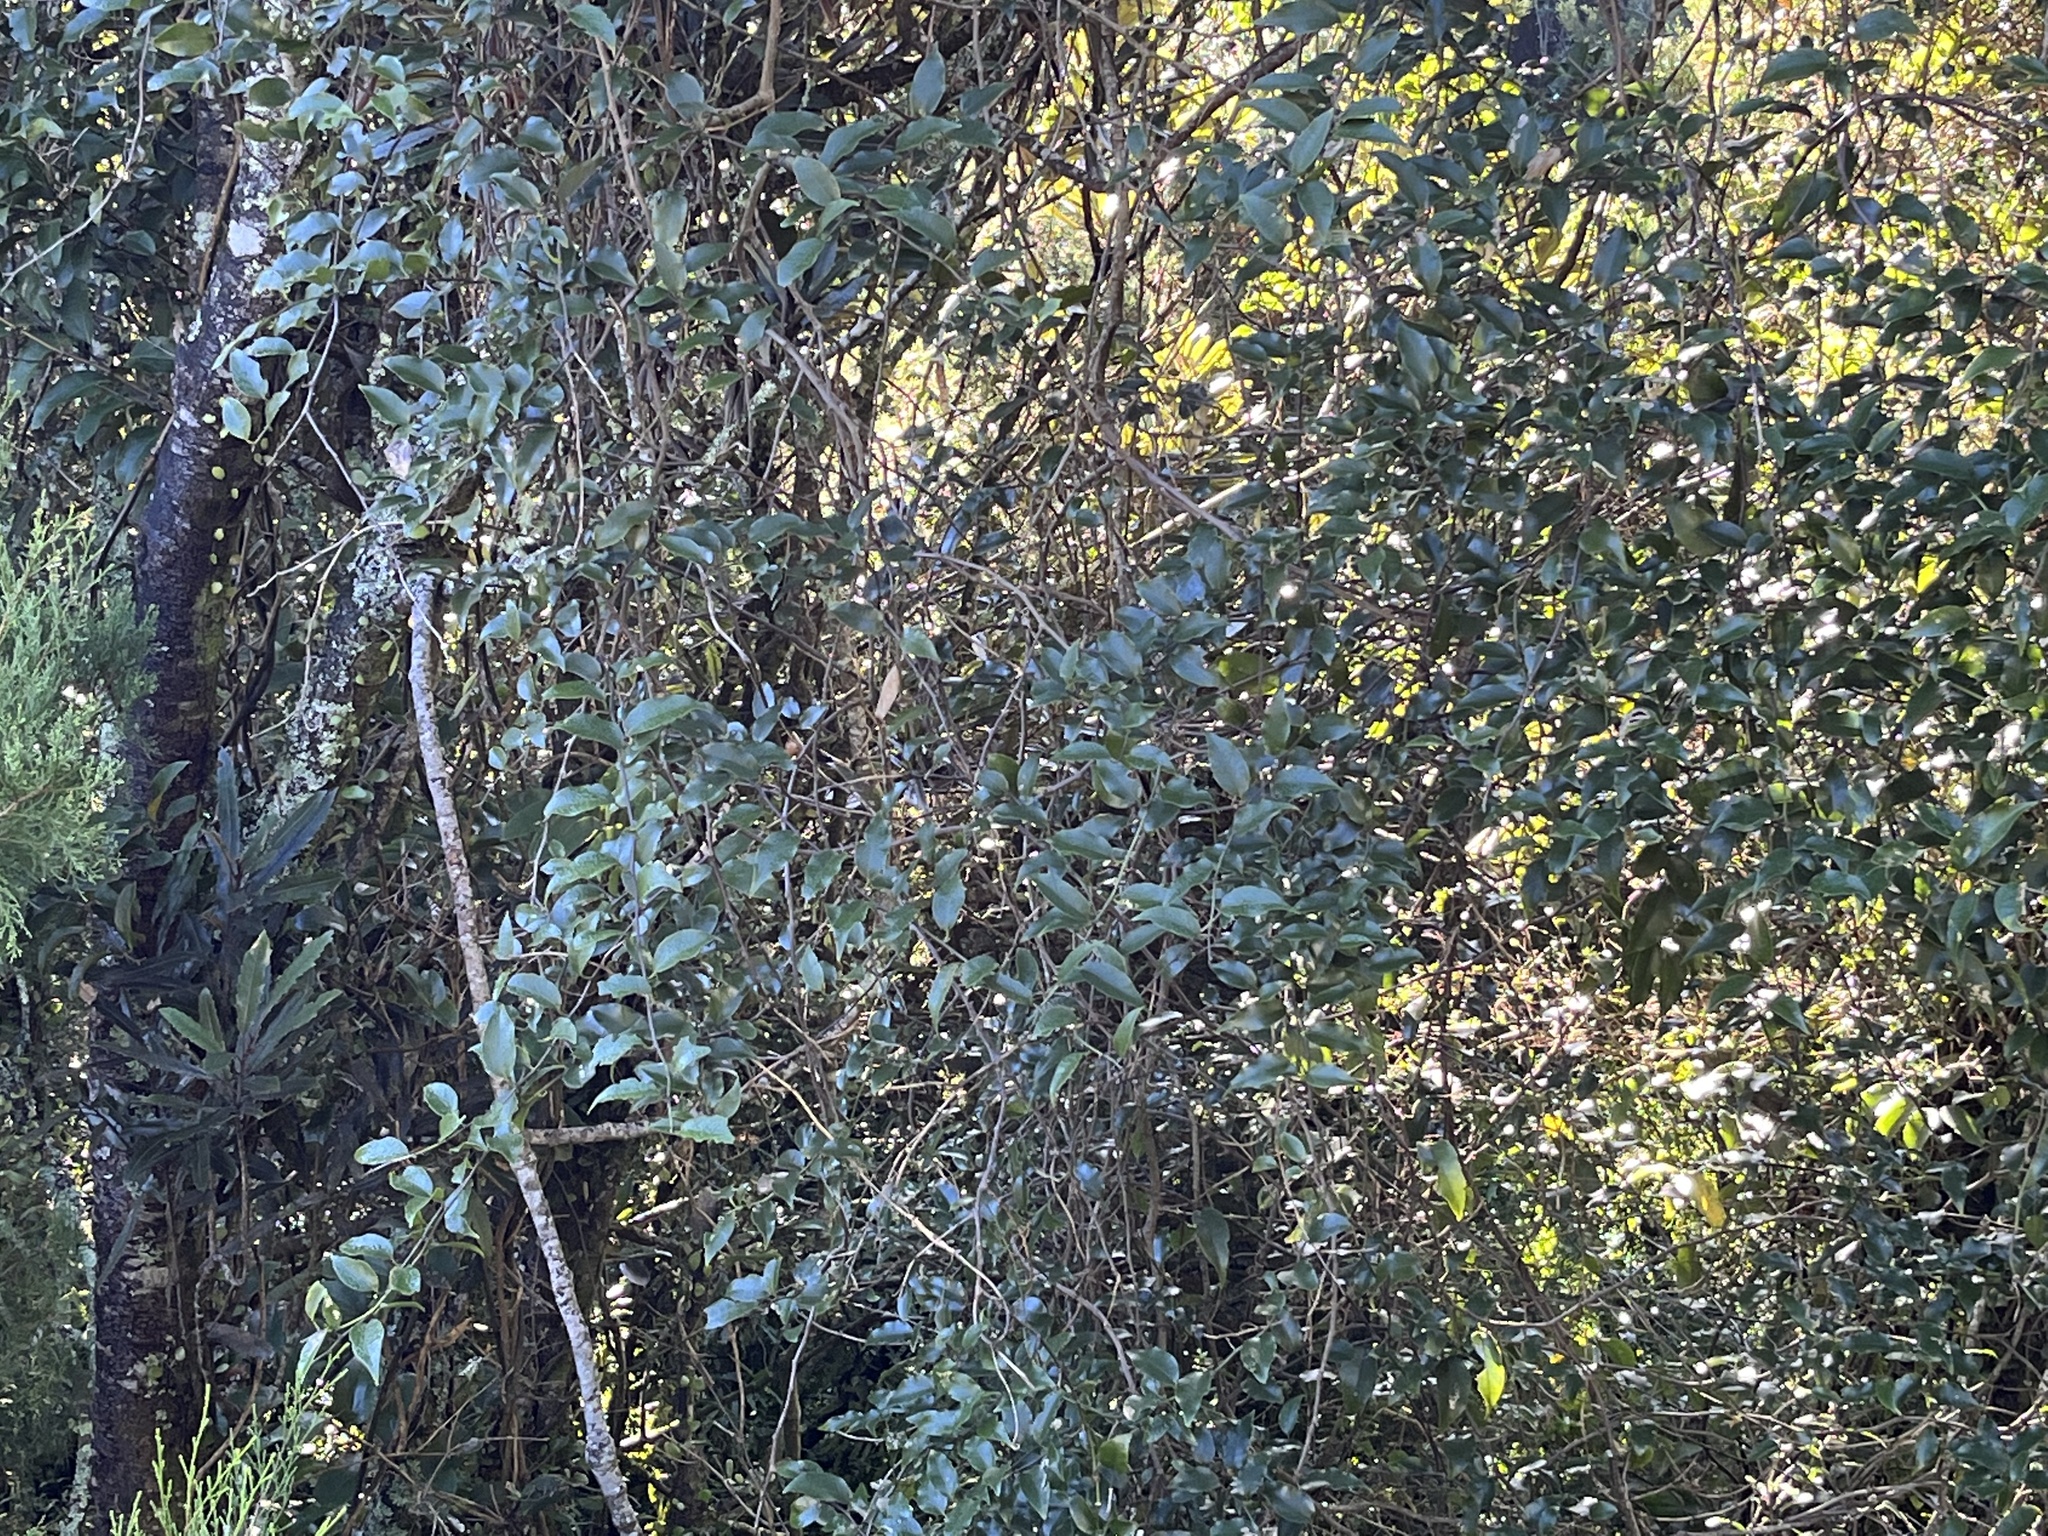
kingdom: Plantae
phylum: Tracheophyta
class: Magnoliopsida
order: Malpighiales
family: Passifloraceae
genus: Passiflora
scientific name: Passiflora tetrandra
